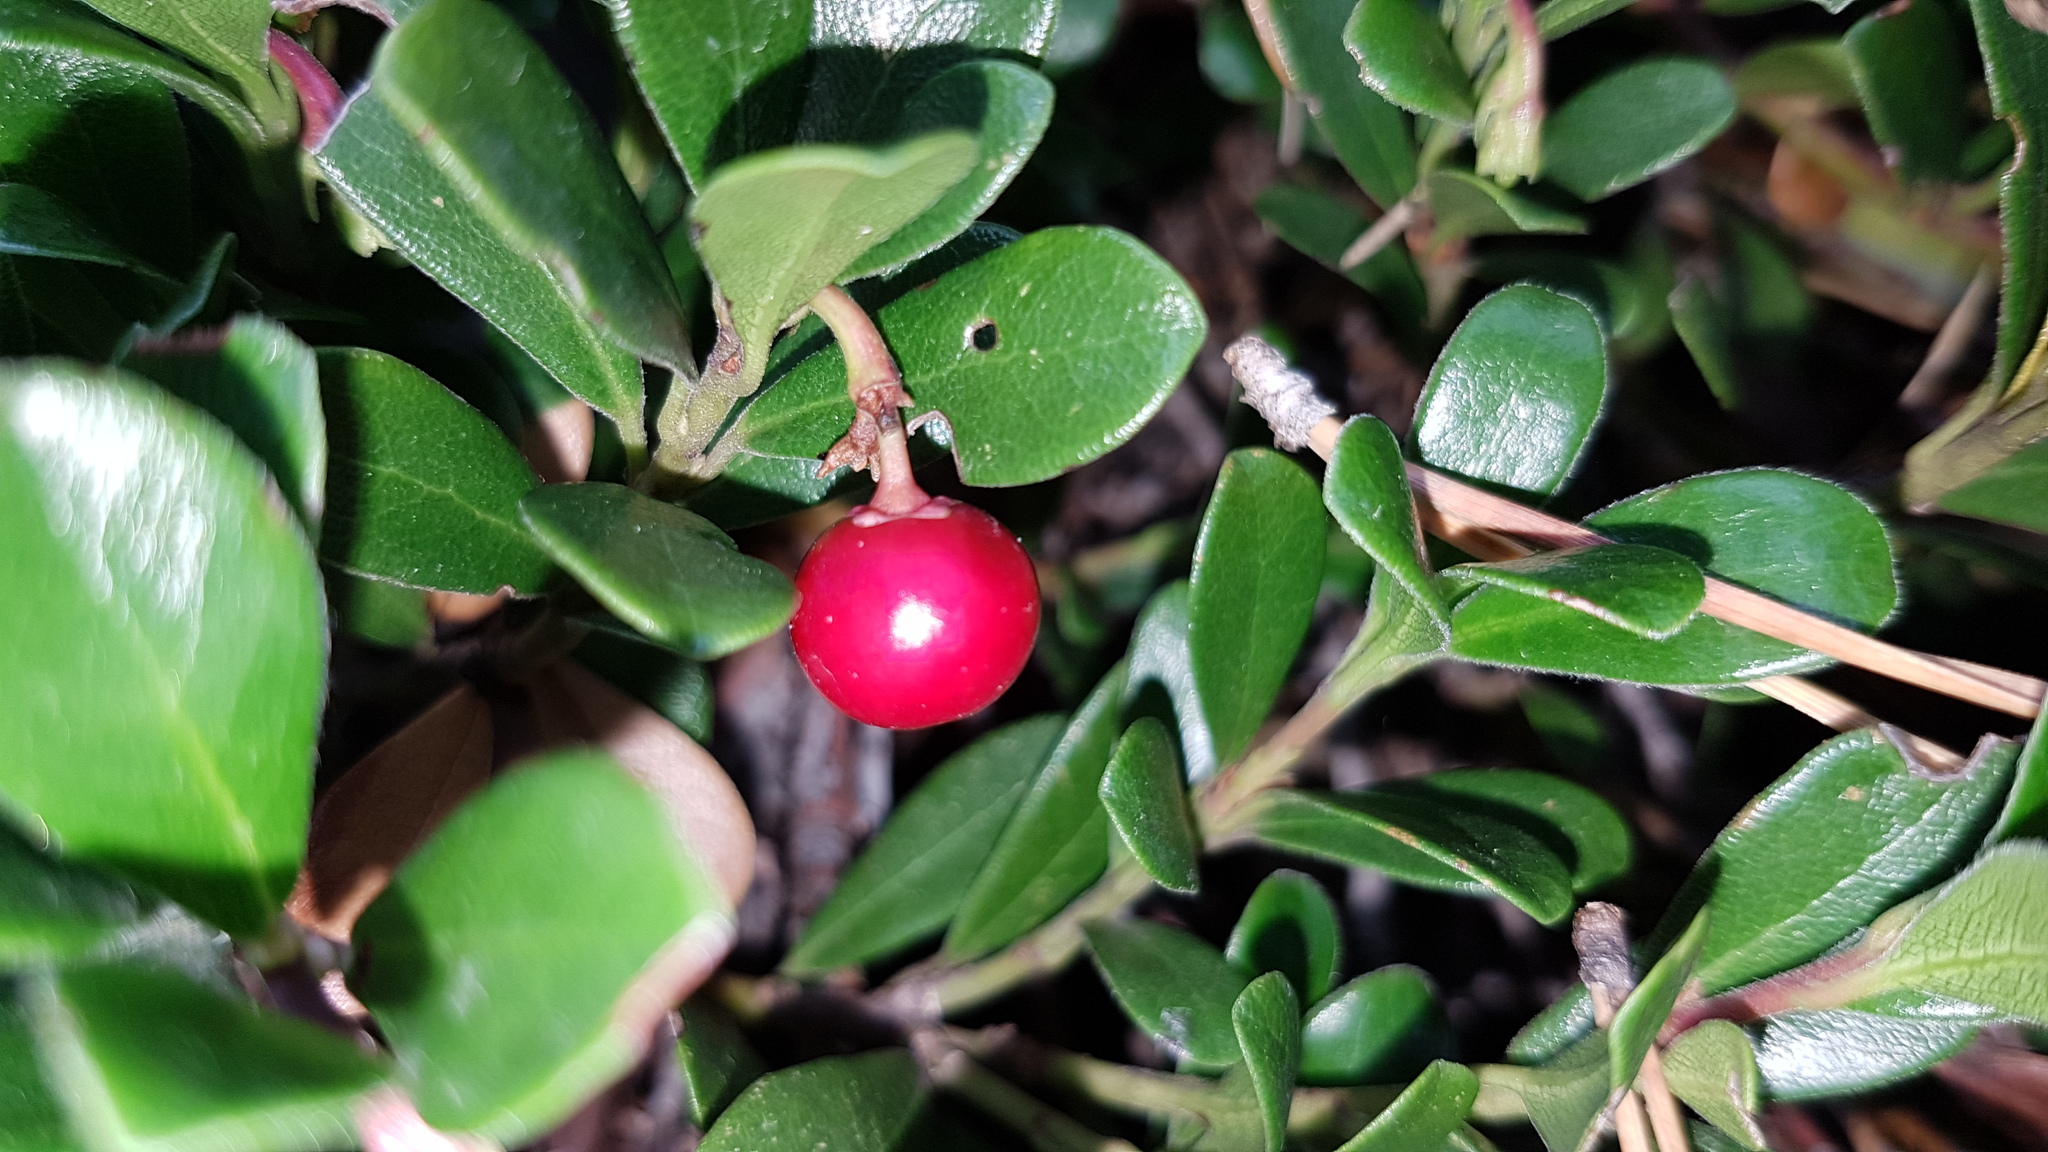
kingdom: Plantae
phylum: Tracheophyta
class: Magnoliopsida
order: Ericales
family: Ericaceae
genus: Arctostaphylos
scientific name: Arctostaphylos uva-ursi
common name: Bearberry
